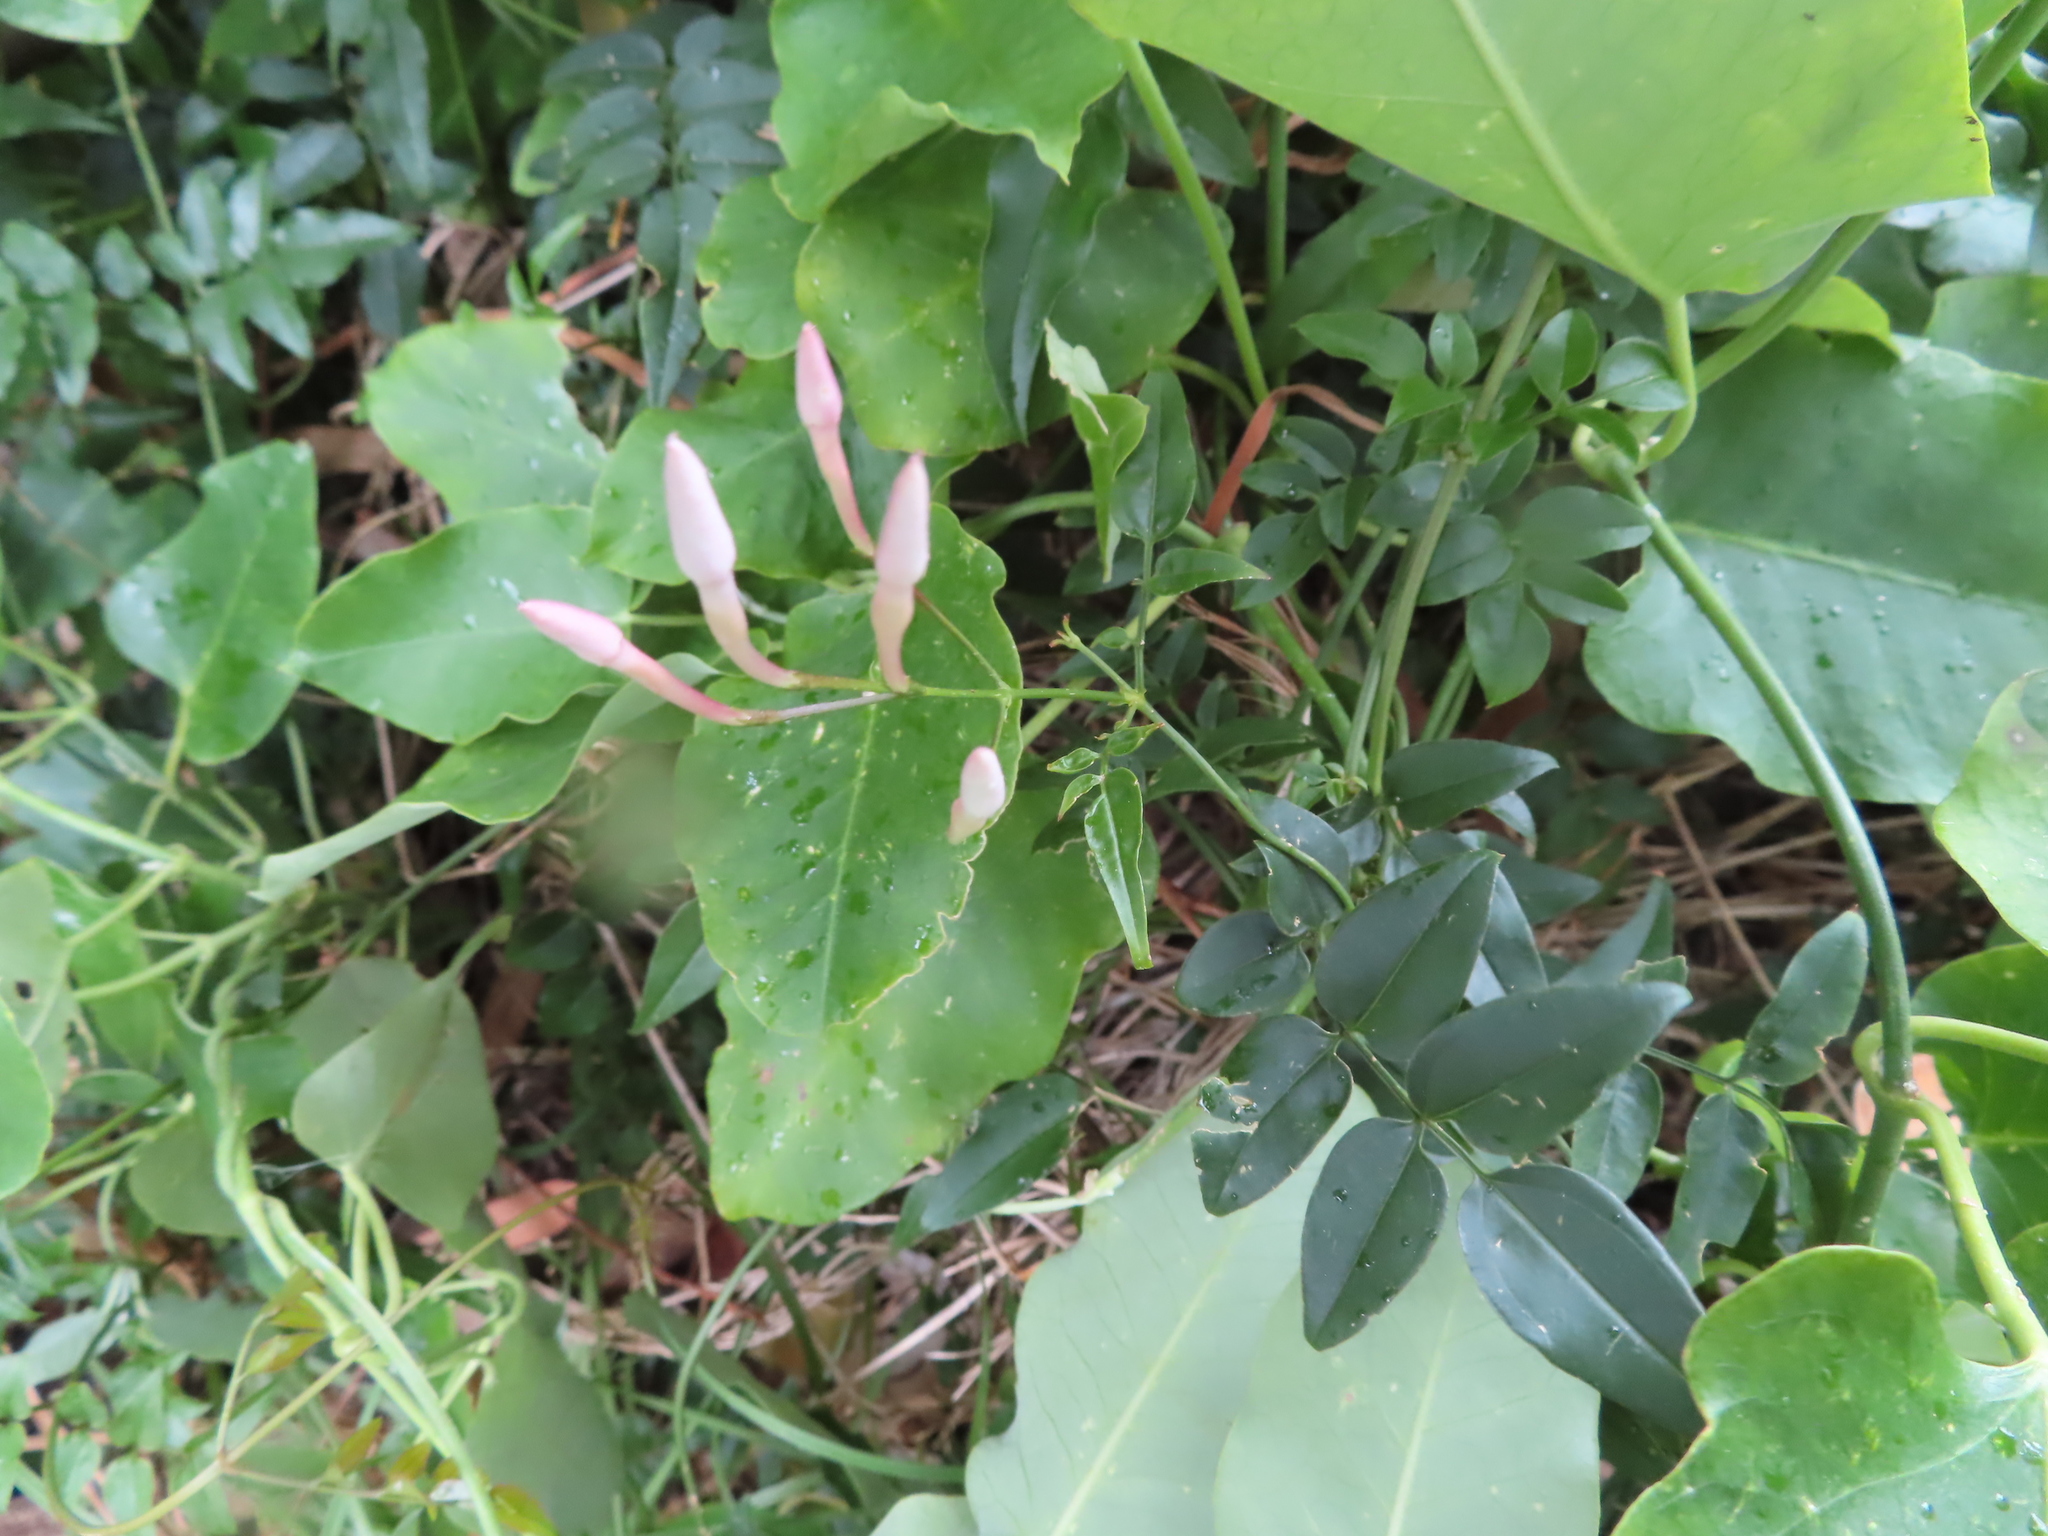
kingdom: Plantae
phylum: Tracheophyta
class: Magnoliopsida
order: Lamiales
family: Oleaceae
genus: Jasminum
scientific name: Jasminum polyanthum
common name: Pink jasmine
